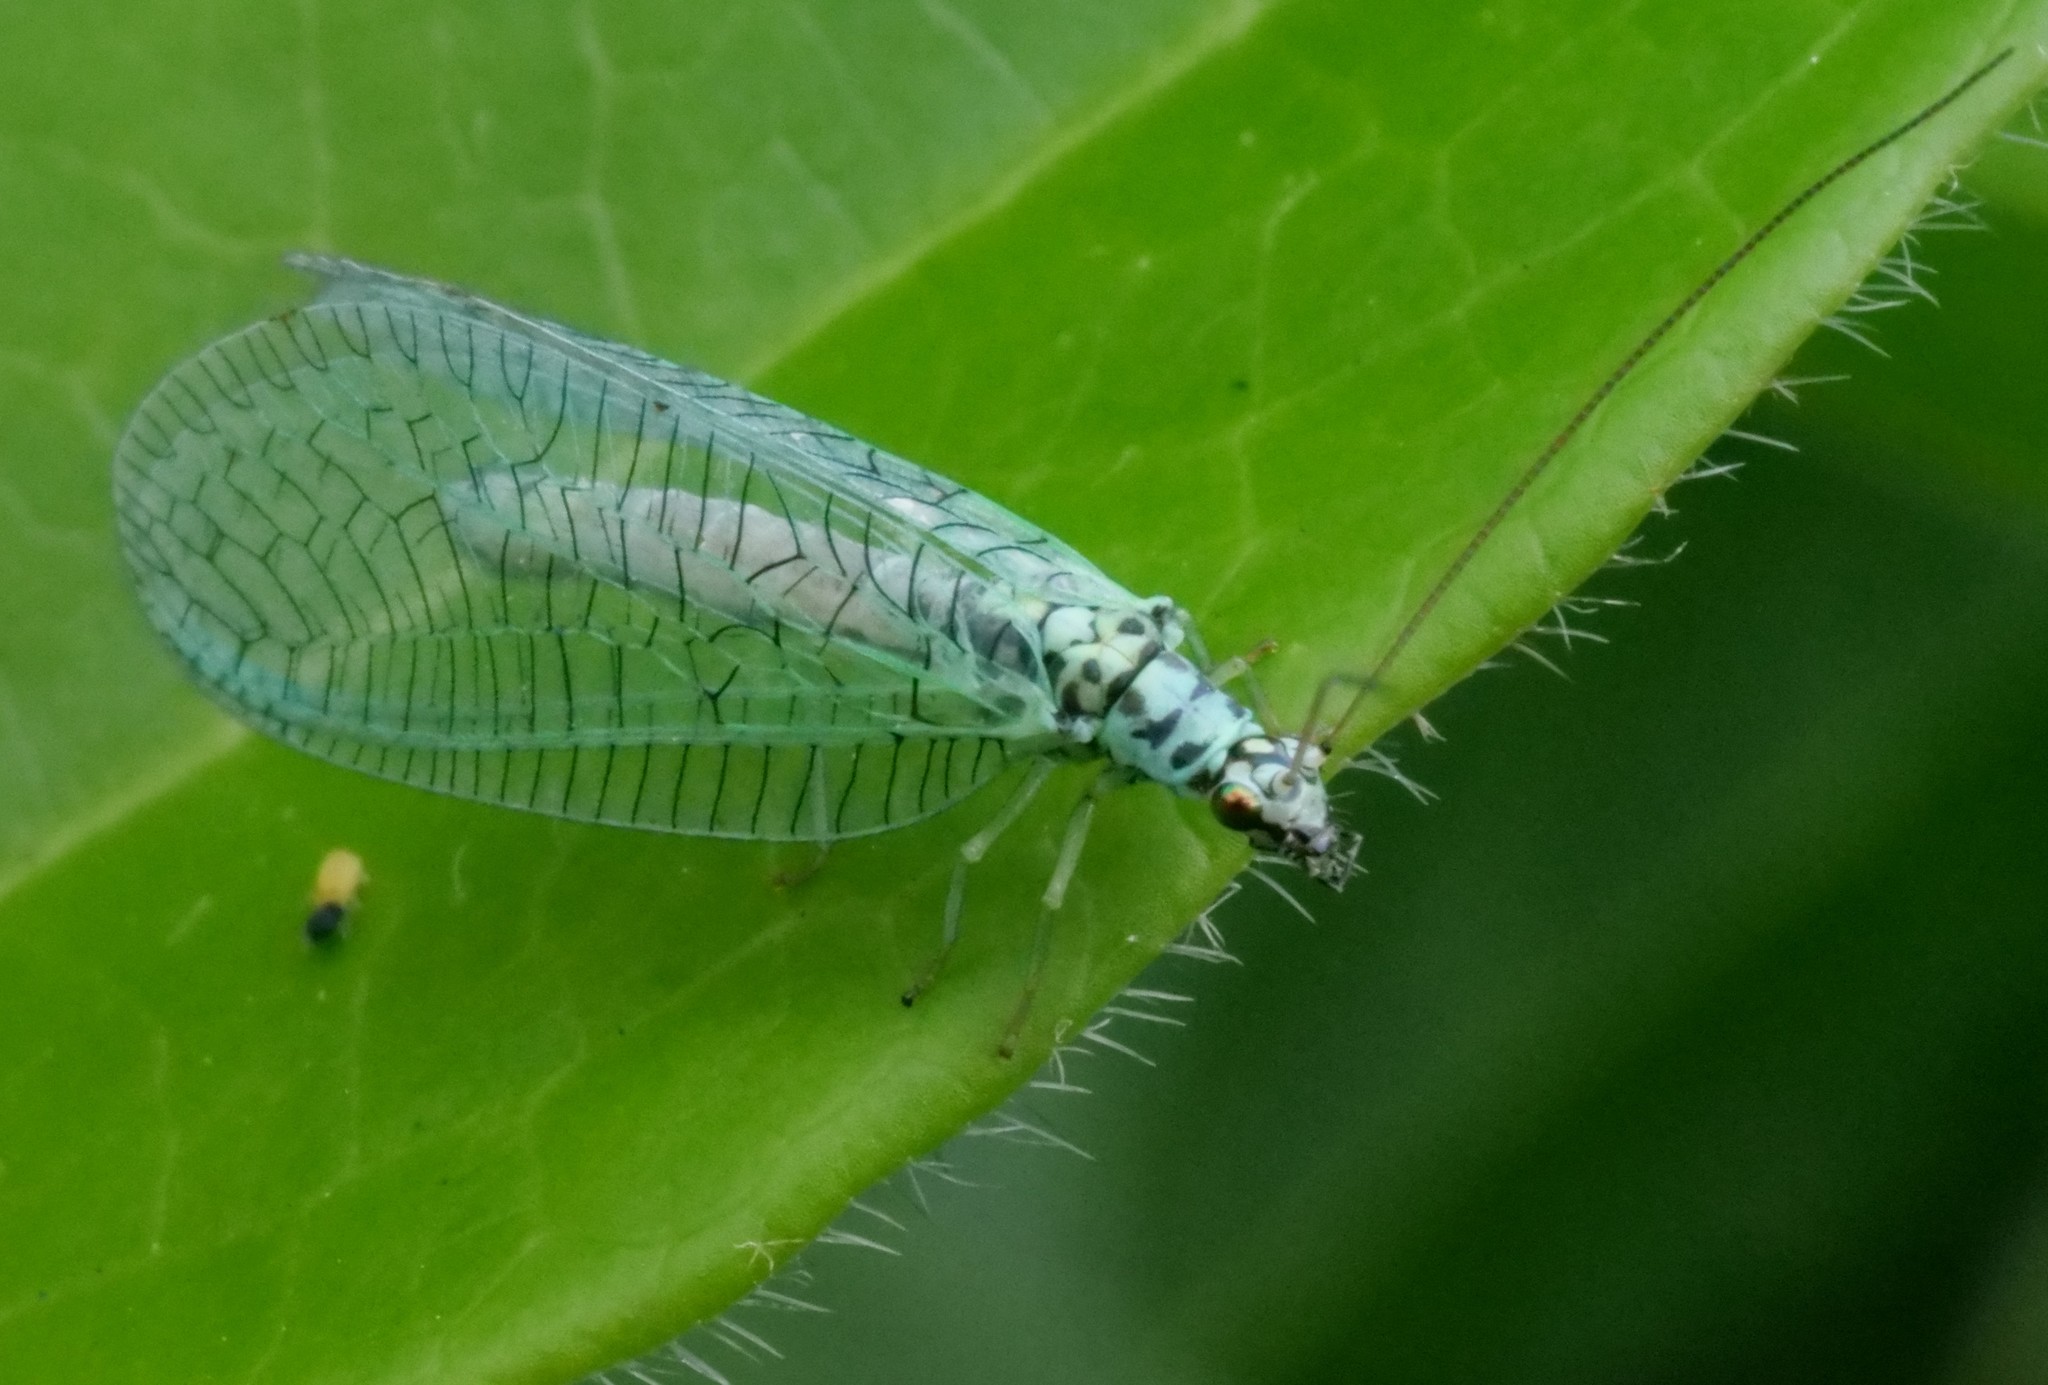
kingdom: Animalia
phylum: Arthropoda
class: Insecta
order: Neuroptera
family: Chrysopidae
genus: Chrysopa
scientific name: Chrysopa perla
